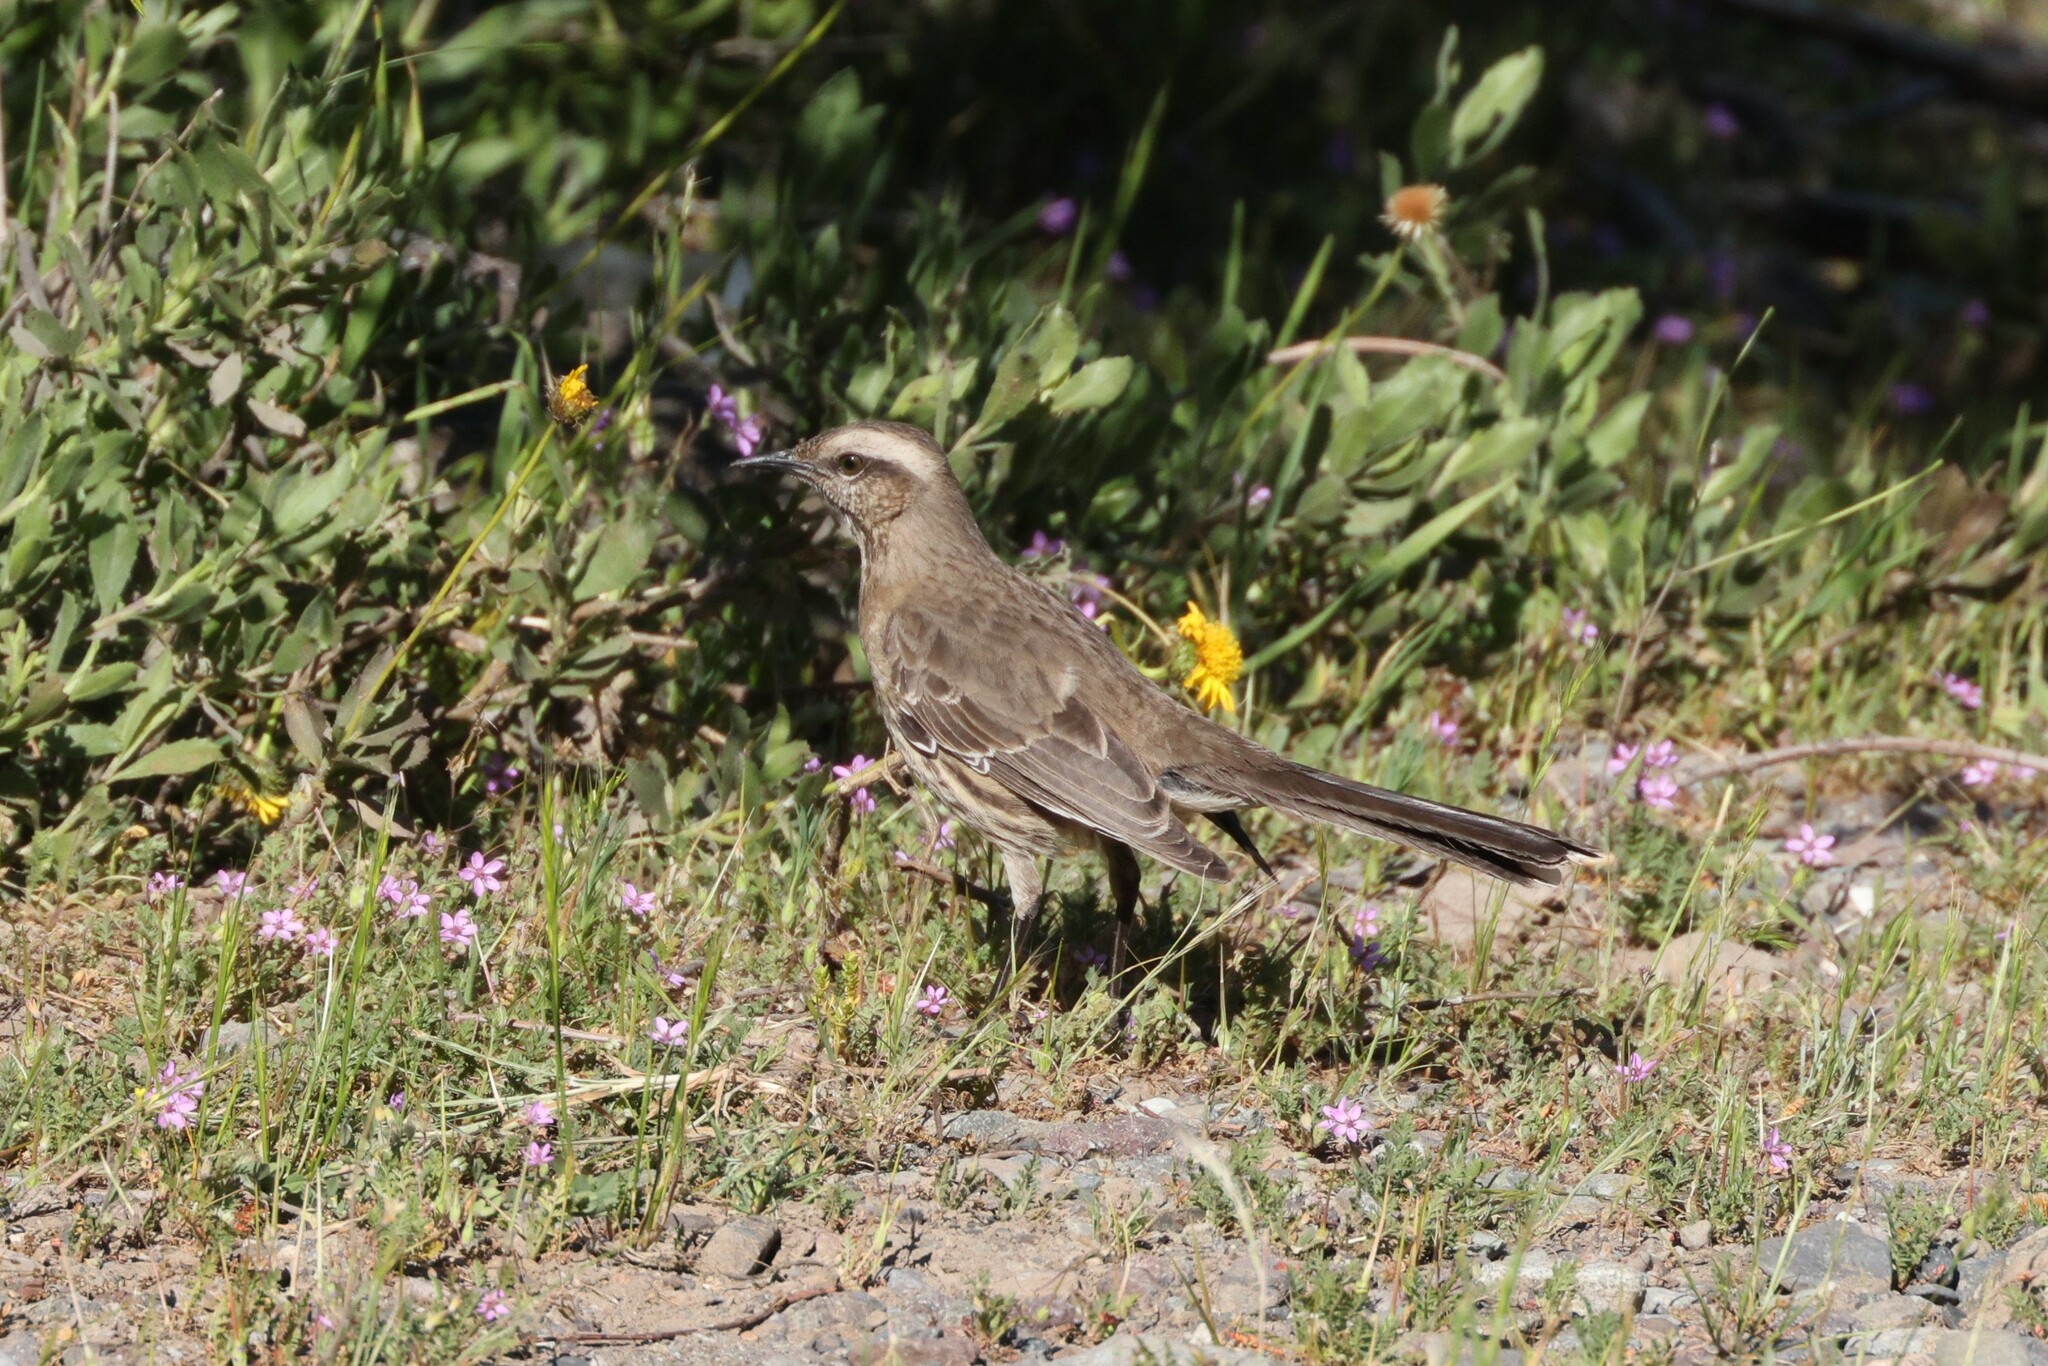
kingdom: Animalia
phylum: Chordata
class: Aves
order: Passeriformes
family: Mimidae
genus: Mimus
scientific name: Mimus thenca
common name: Chilean mockingbird
